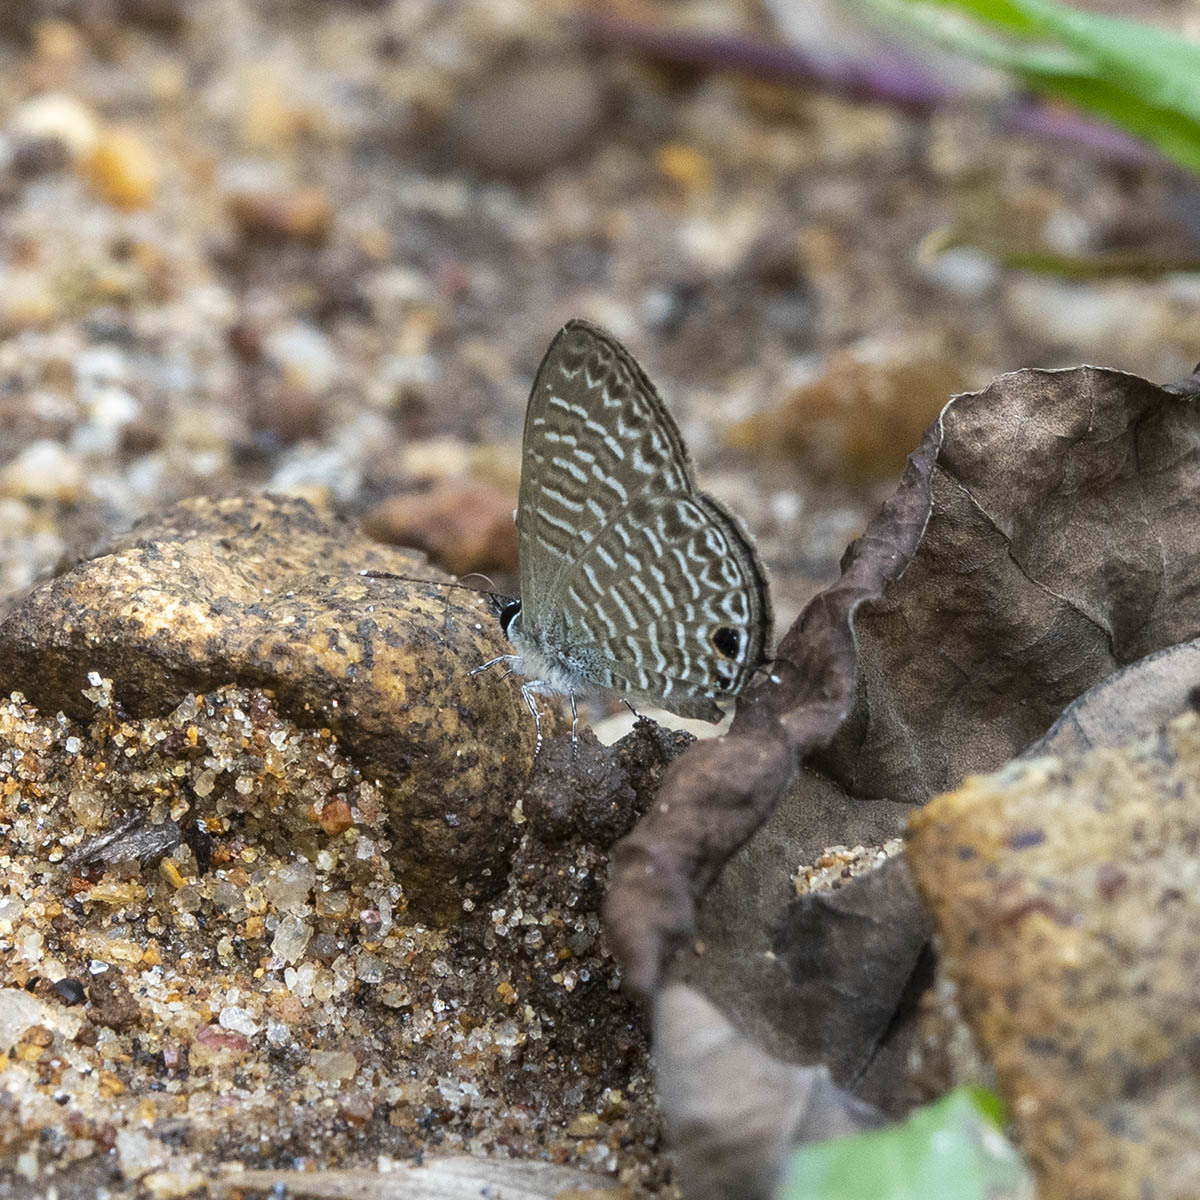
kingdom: Animalia
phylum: Arthropoda
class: Insecta
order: Lepidoptera
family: Lycaenidae
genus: Nacaduba
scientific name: Nacaduba sinhala
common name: Pale ceylon line blue
